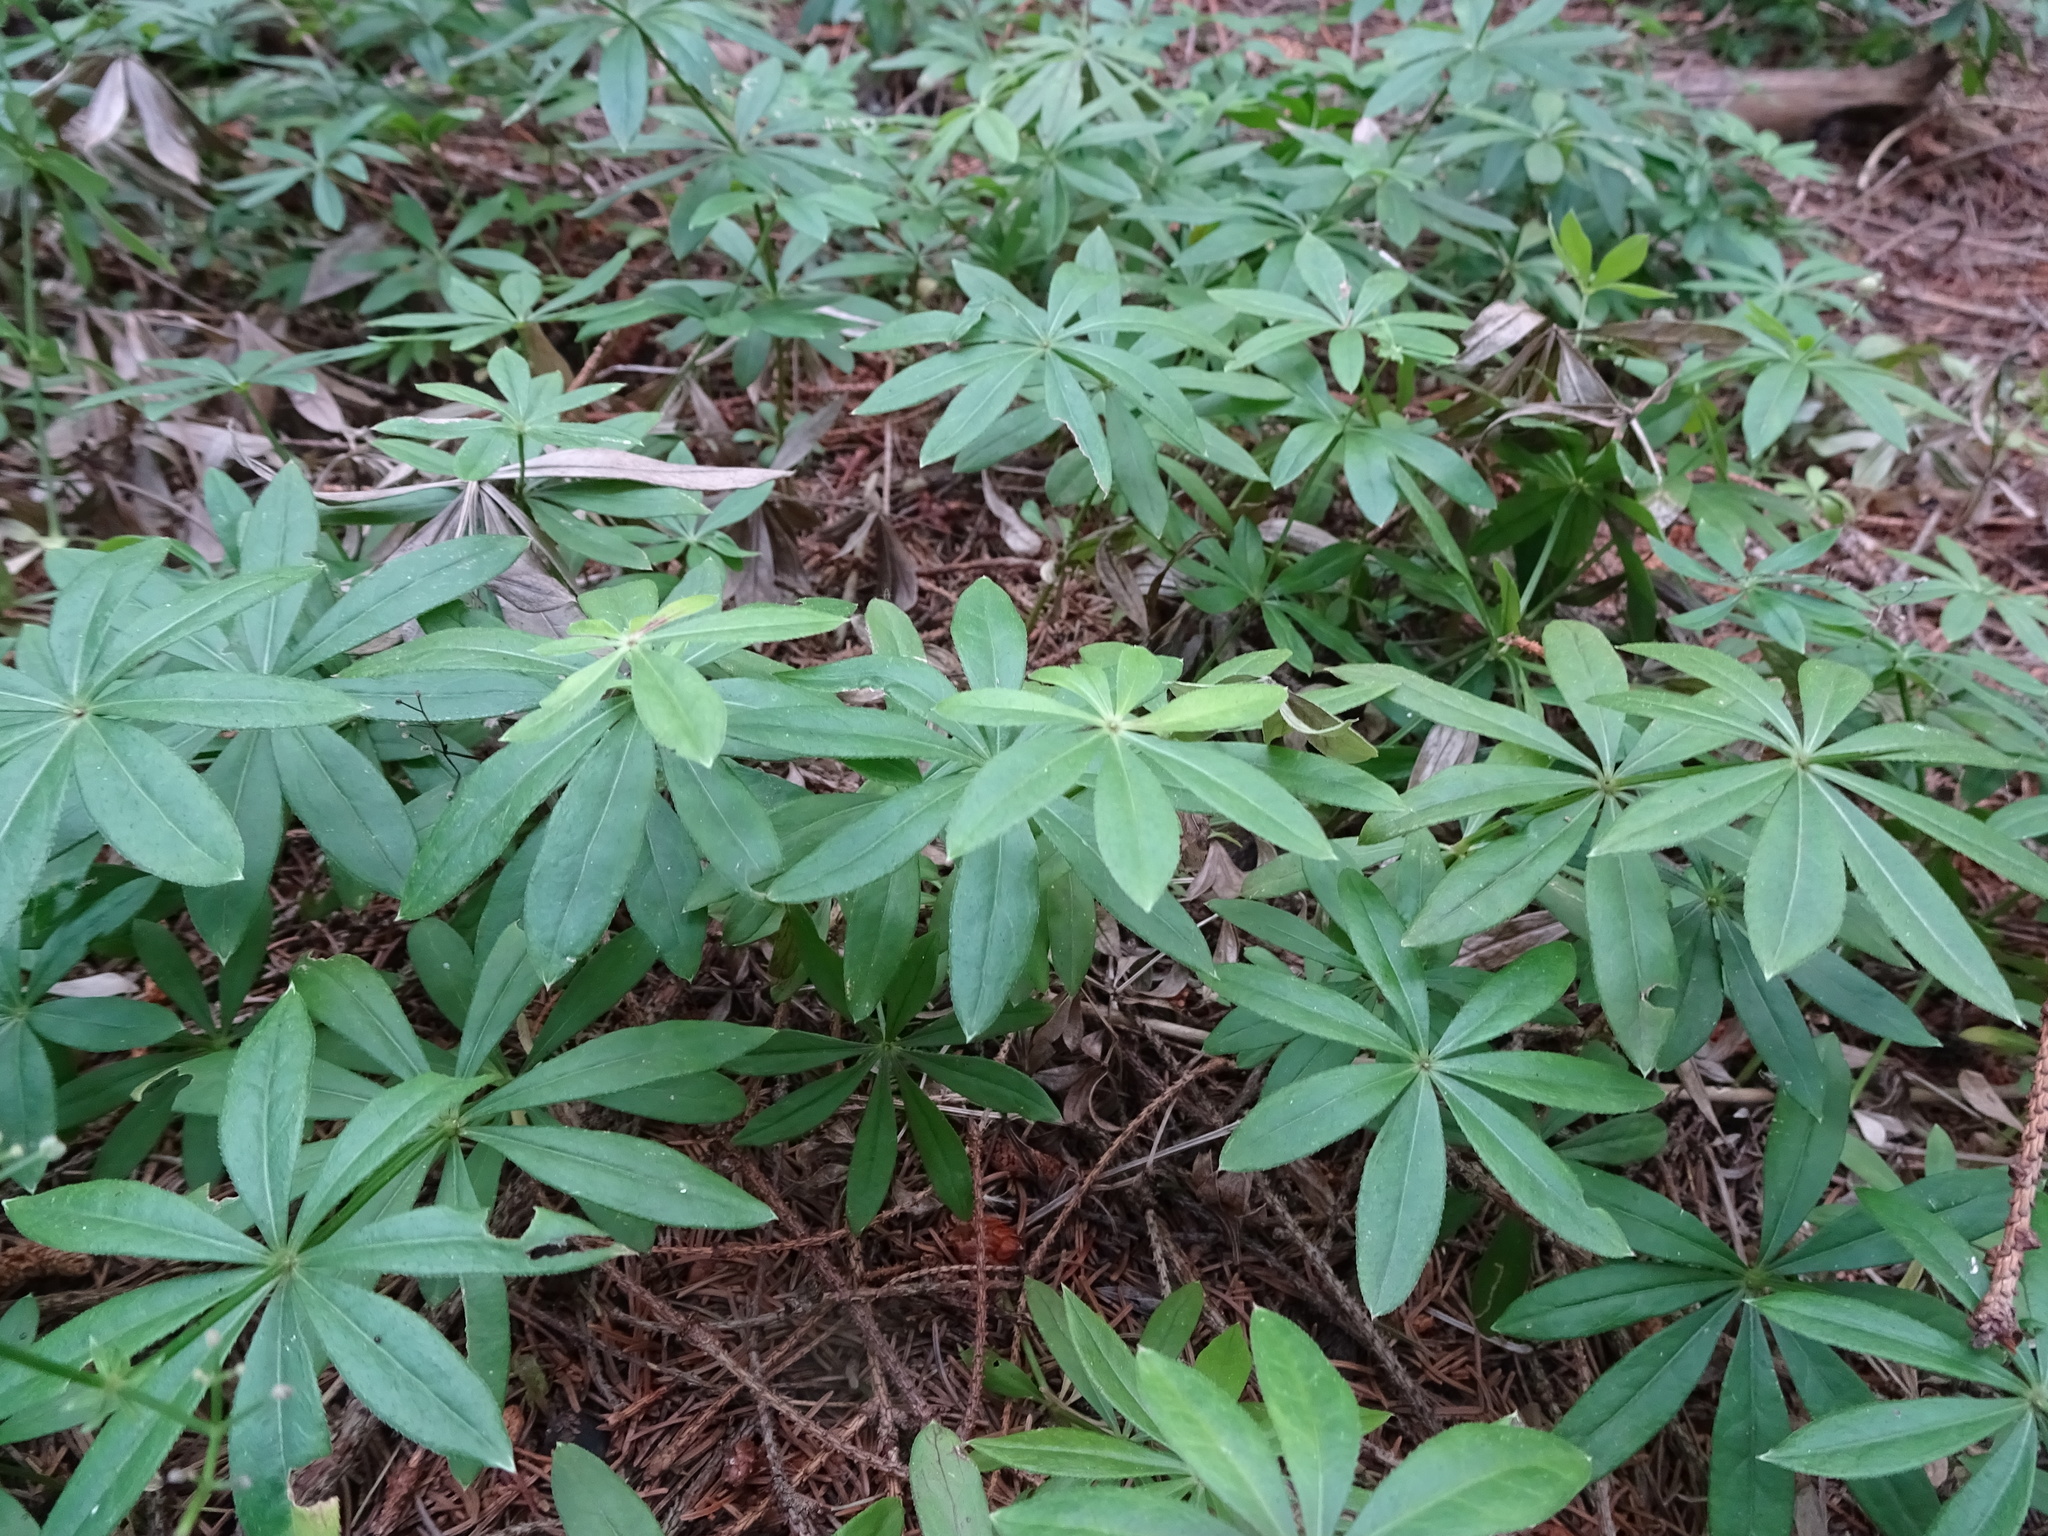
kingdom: Plantae
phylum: Tracheophyta
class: Magnoliopsida
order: Gentianales
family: Rubiaceae
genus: Galium
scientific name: Galium odoratum
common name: Sweet woodruff
